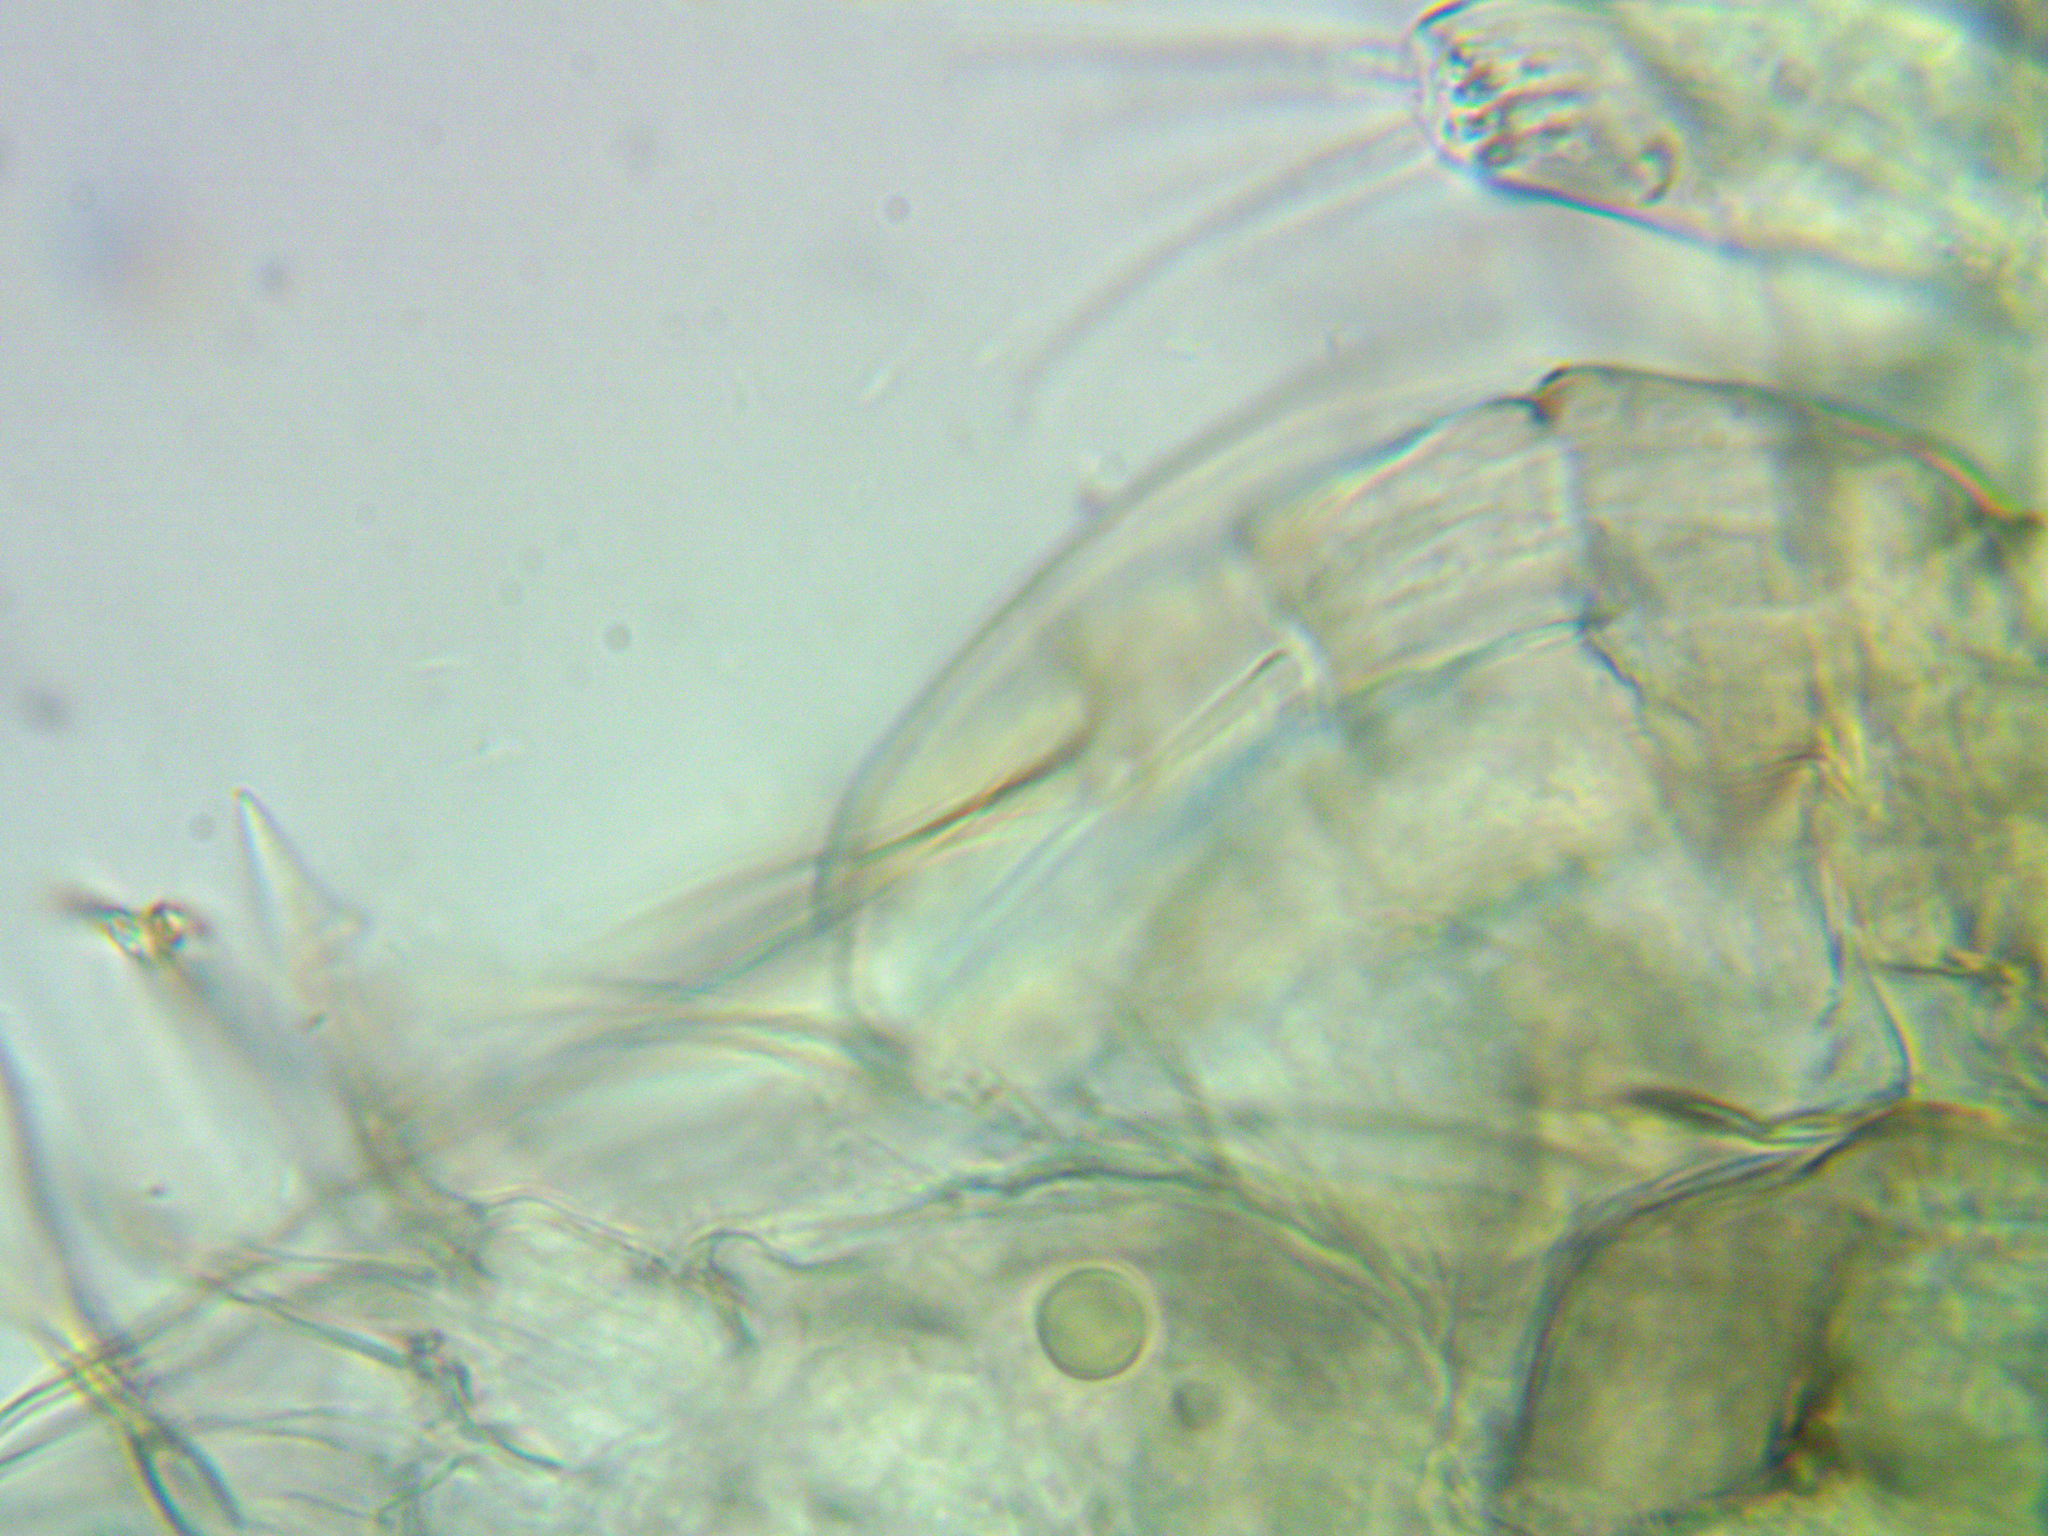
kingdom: Animalia
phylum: Arthropoda
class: Branchiopoda
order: Diplostraca
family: Chydoridae
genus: Coronatella
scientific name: Coronatella rectangula
